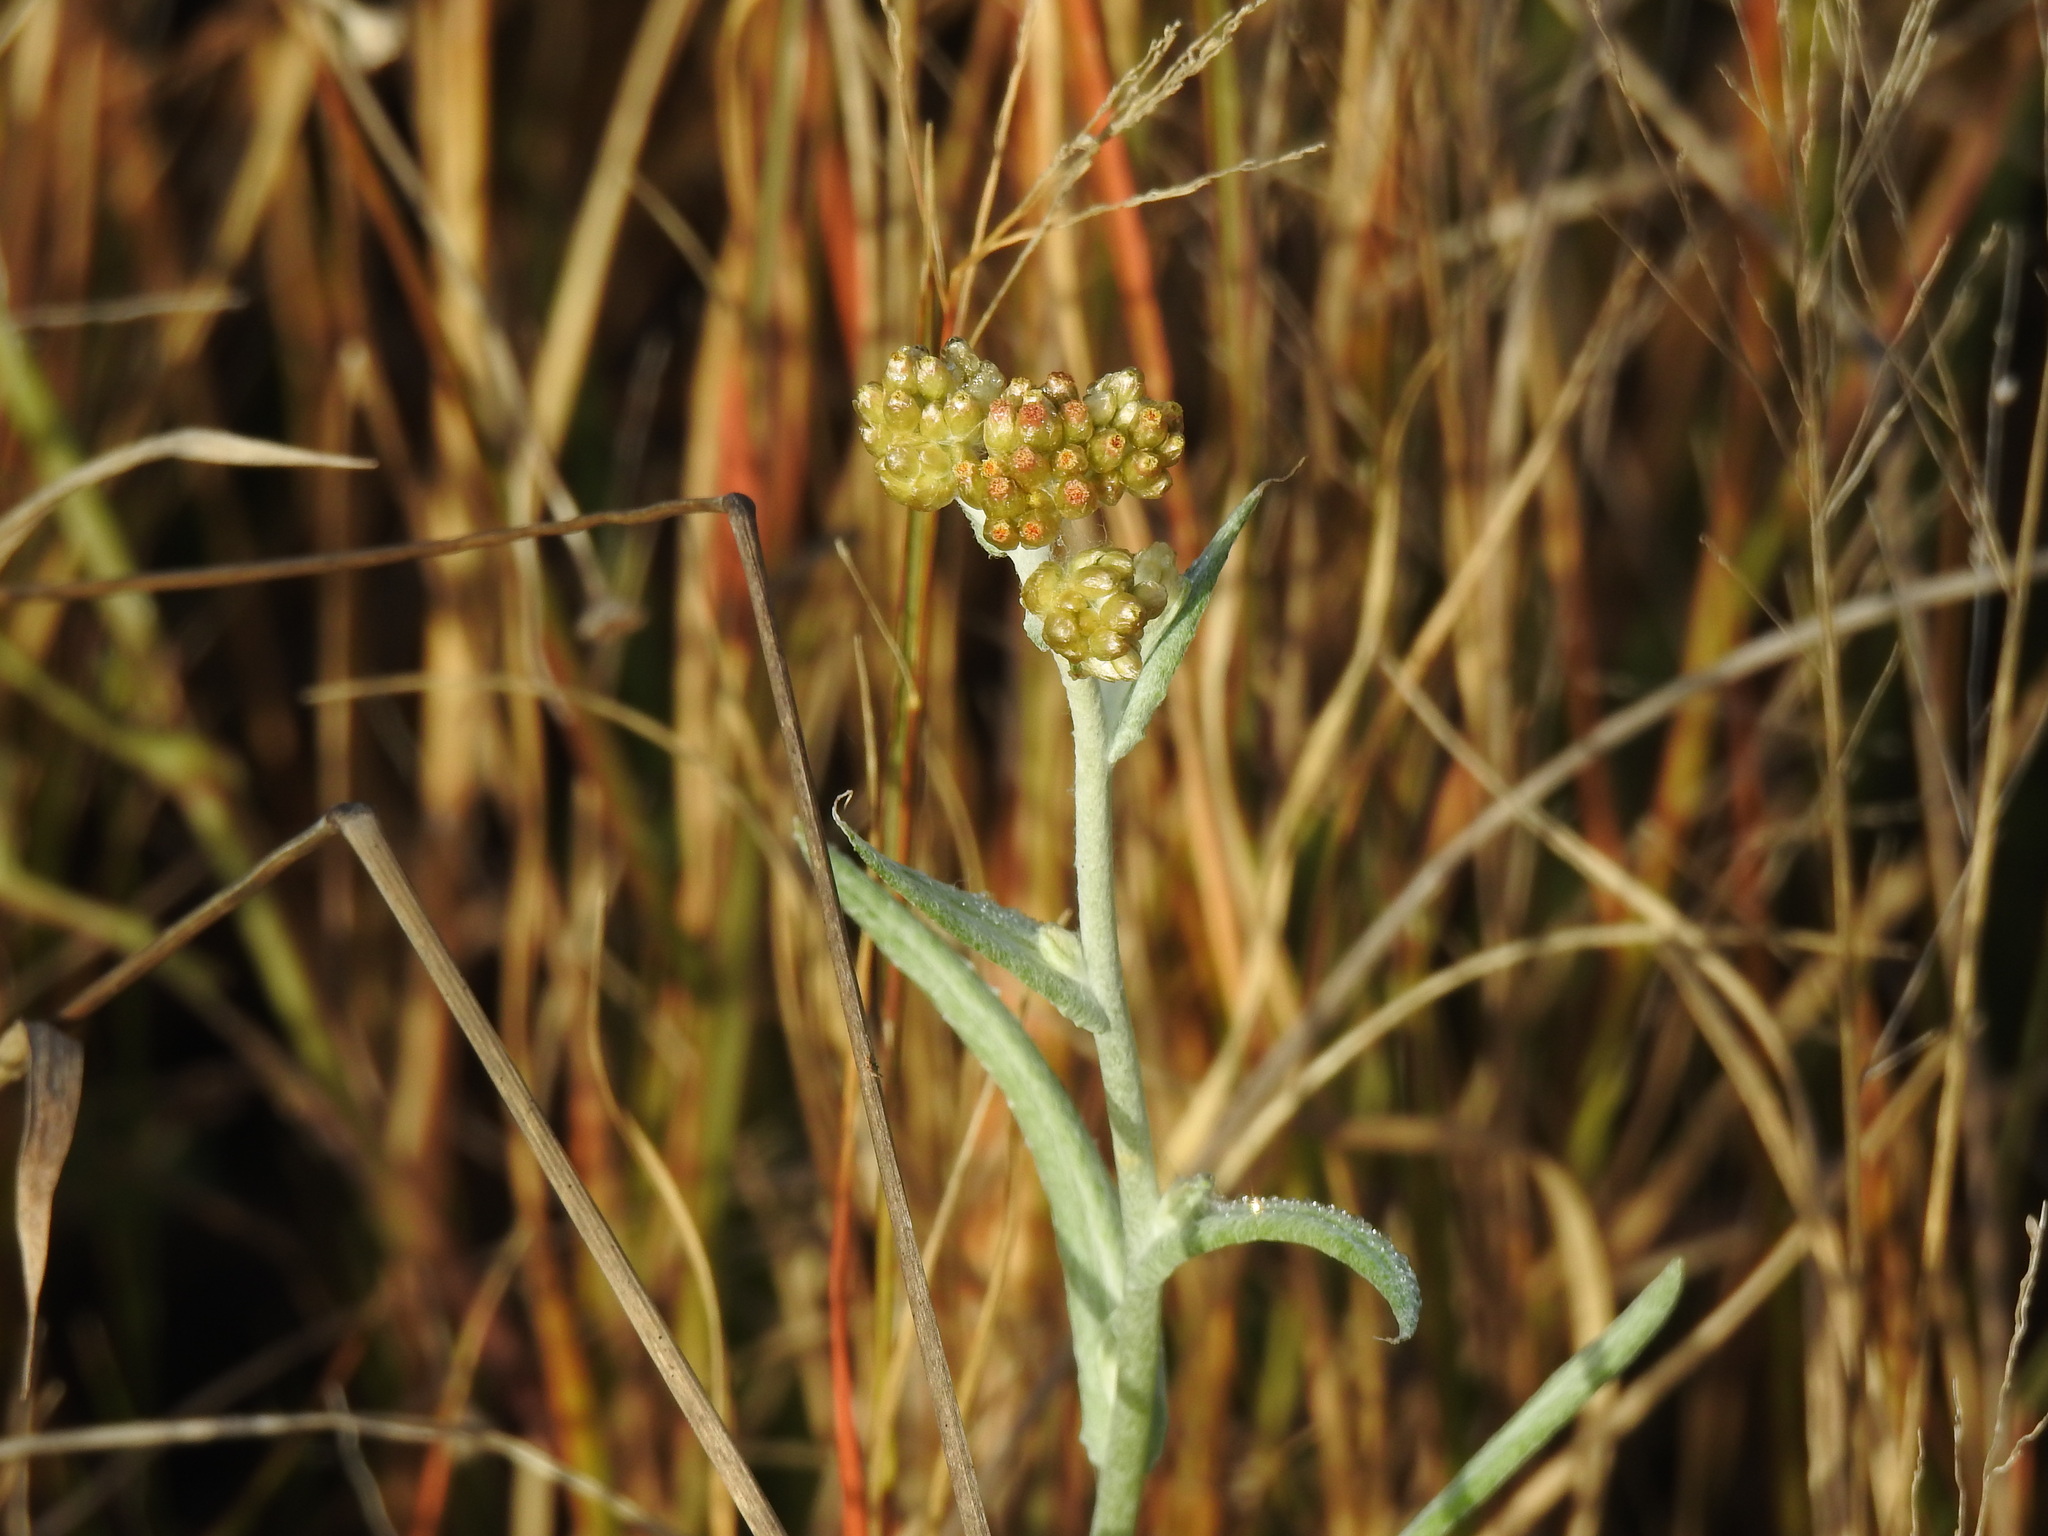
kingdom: Plantae
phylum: Tracheophyta
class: Magnoliopsida
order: Asterales
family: Asteraceae
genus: Helichrysum
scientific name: Helichrysum luteoalbum
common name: Daisy
